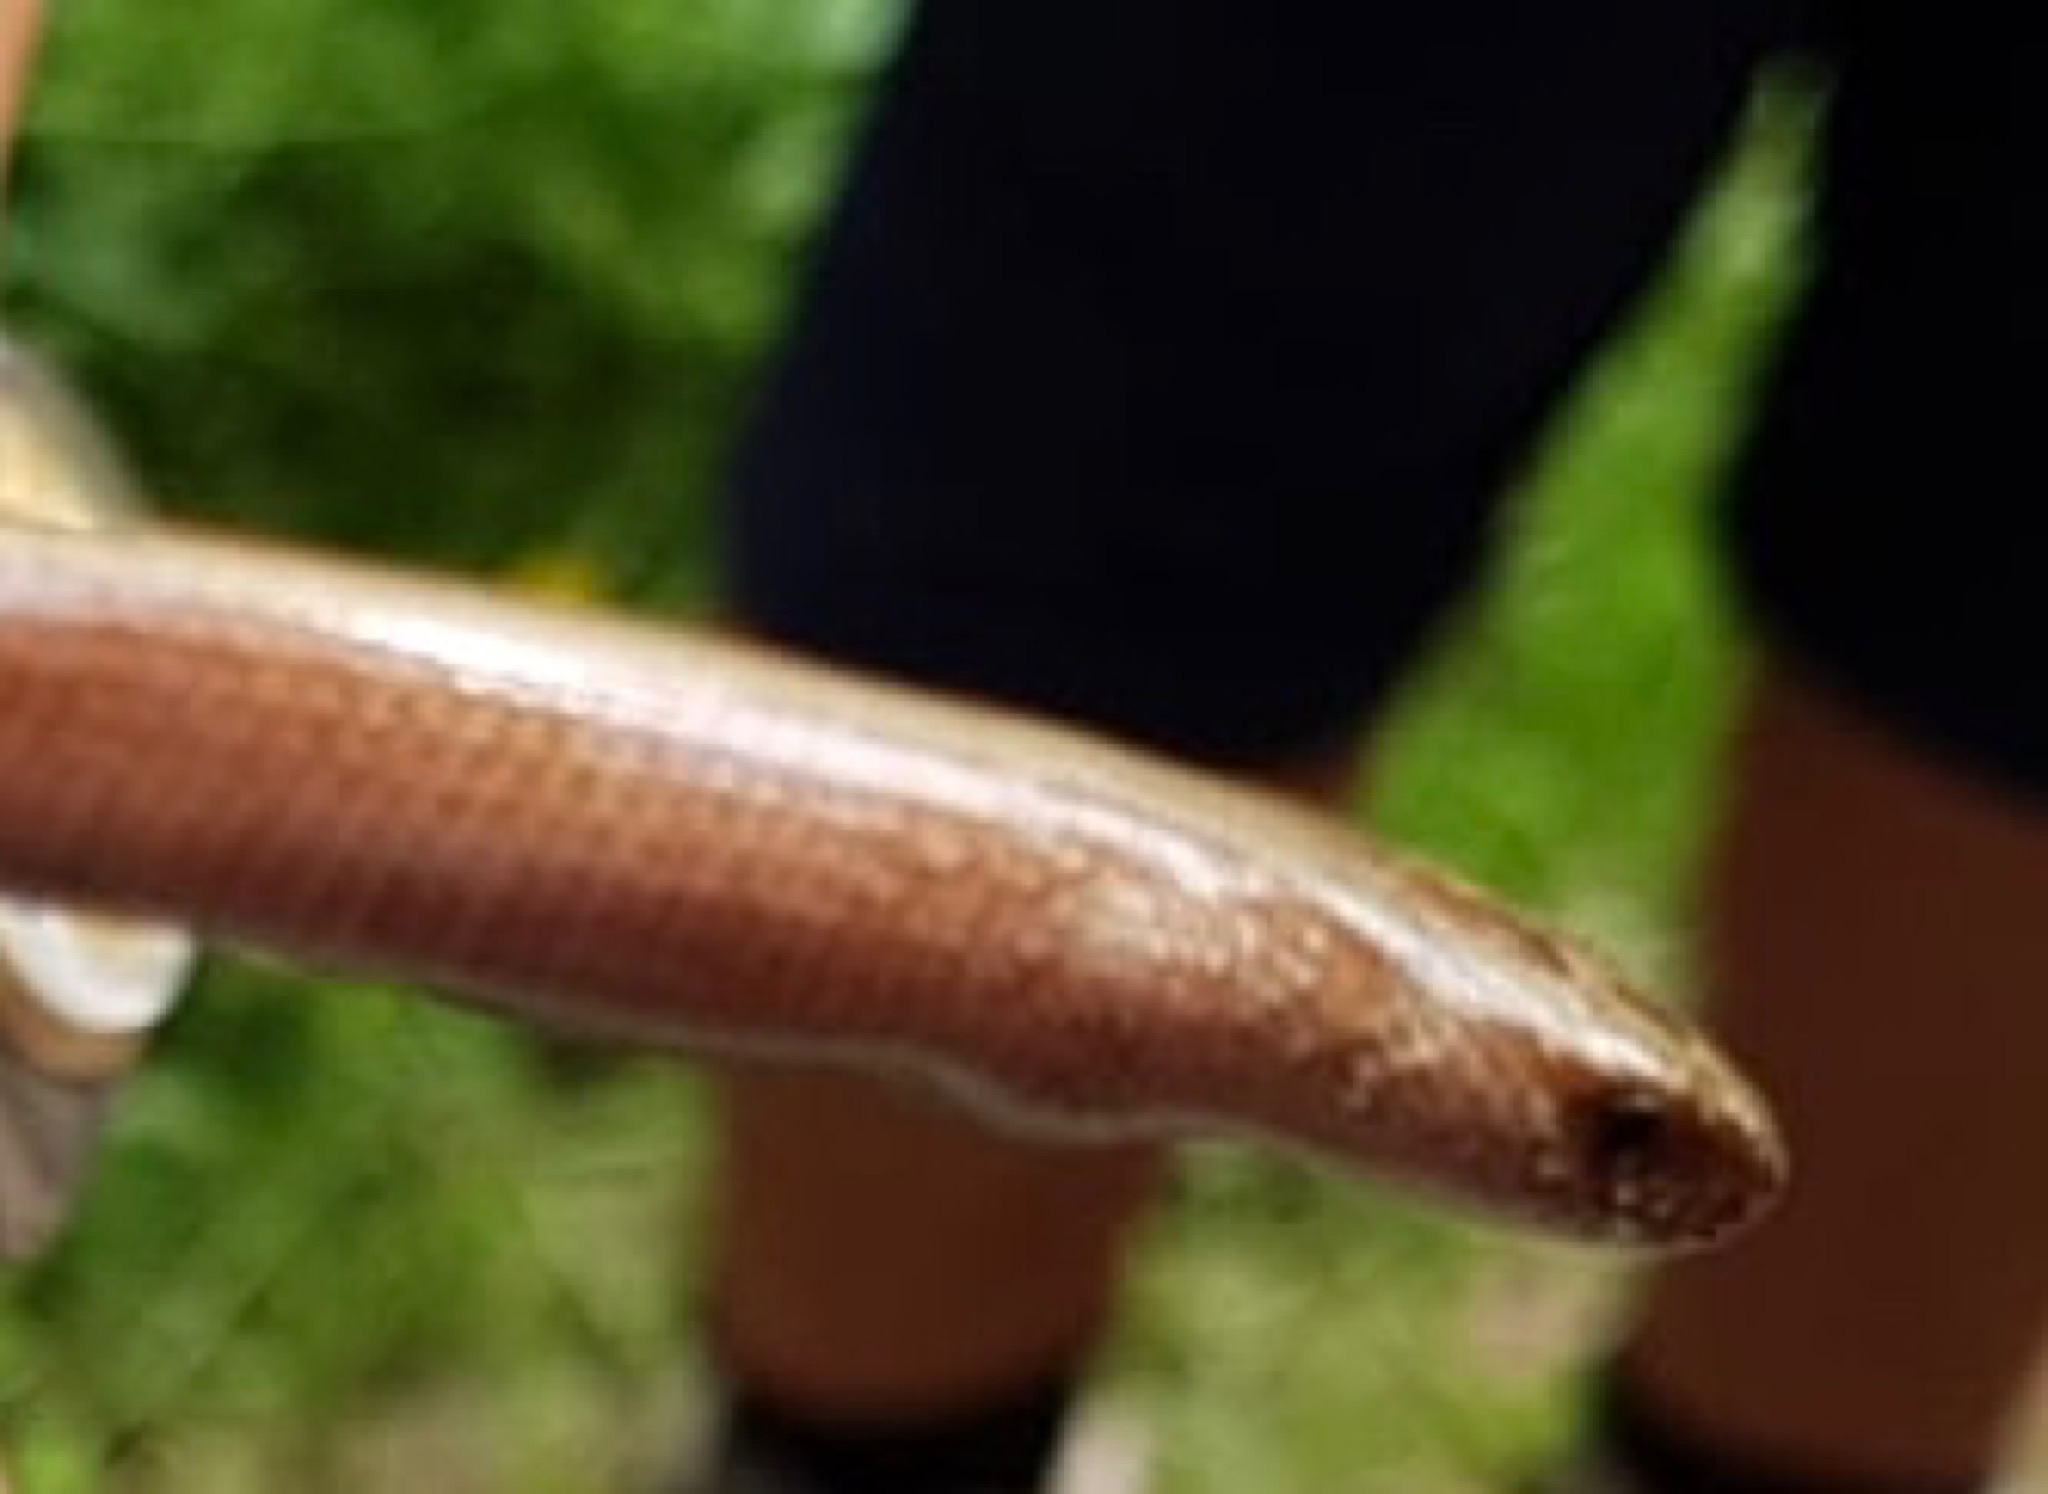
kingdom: Animalia
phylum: Chordata
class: Squamata
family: Anguidae
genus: Anguis
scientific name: Anguis fragilis
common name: Slow worm
